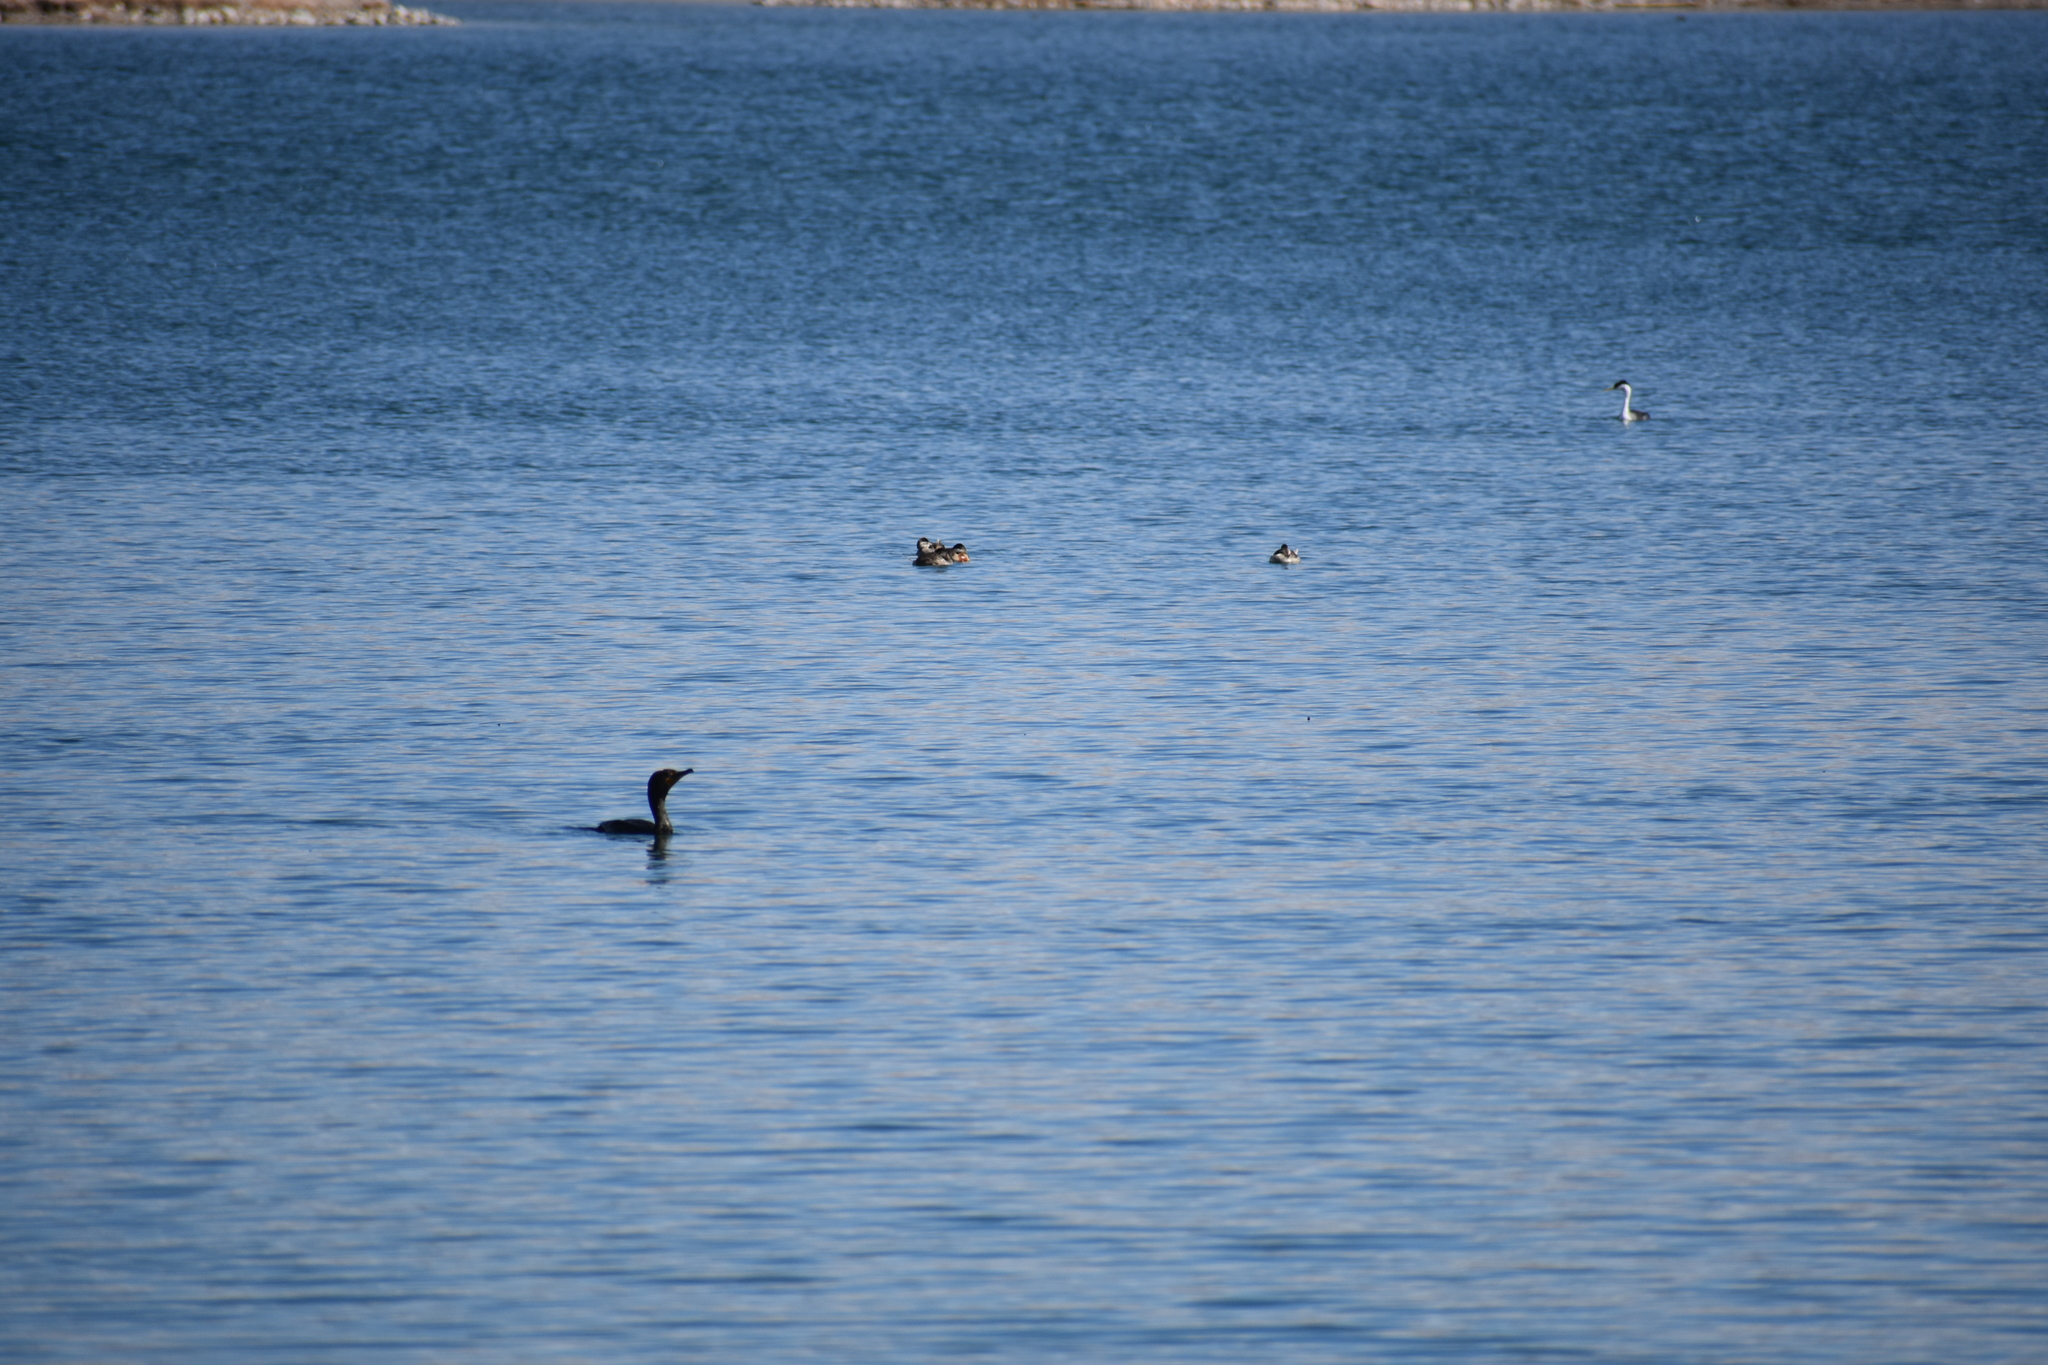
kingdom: Animalia
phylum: Chordata
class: Aves
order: Suliformes
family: Phalacrocoracidae
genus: Phalacrocorax
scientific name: Phalacrocorax auritus
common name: Double-crested cormorant
